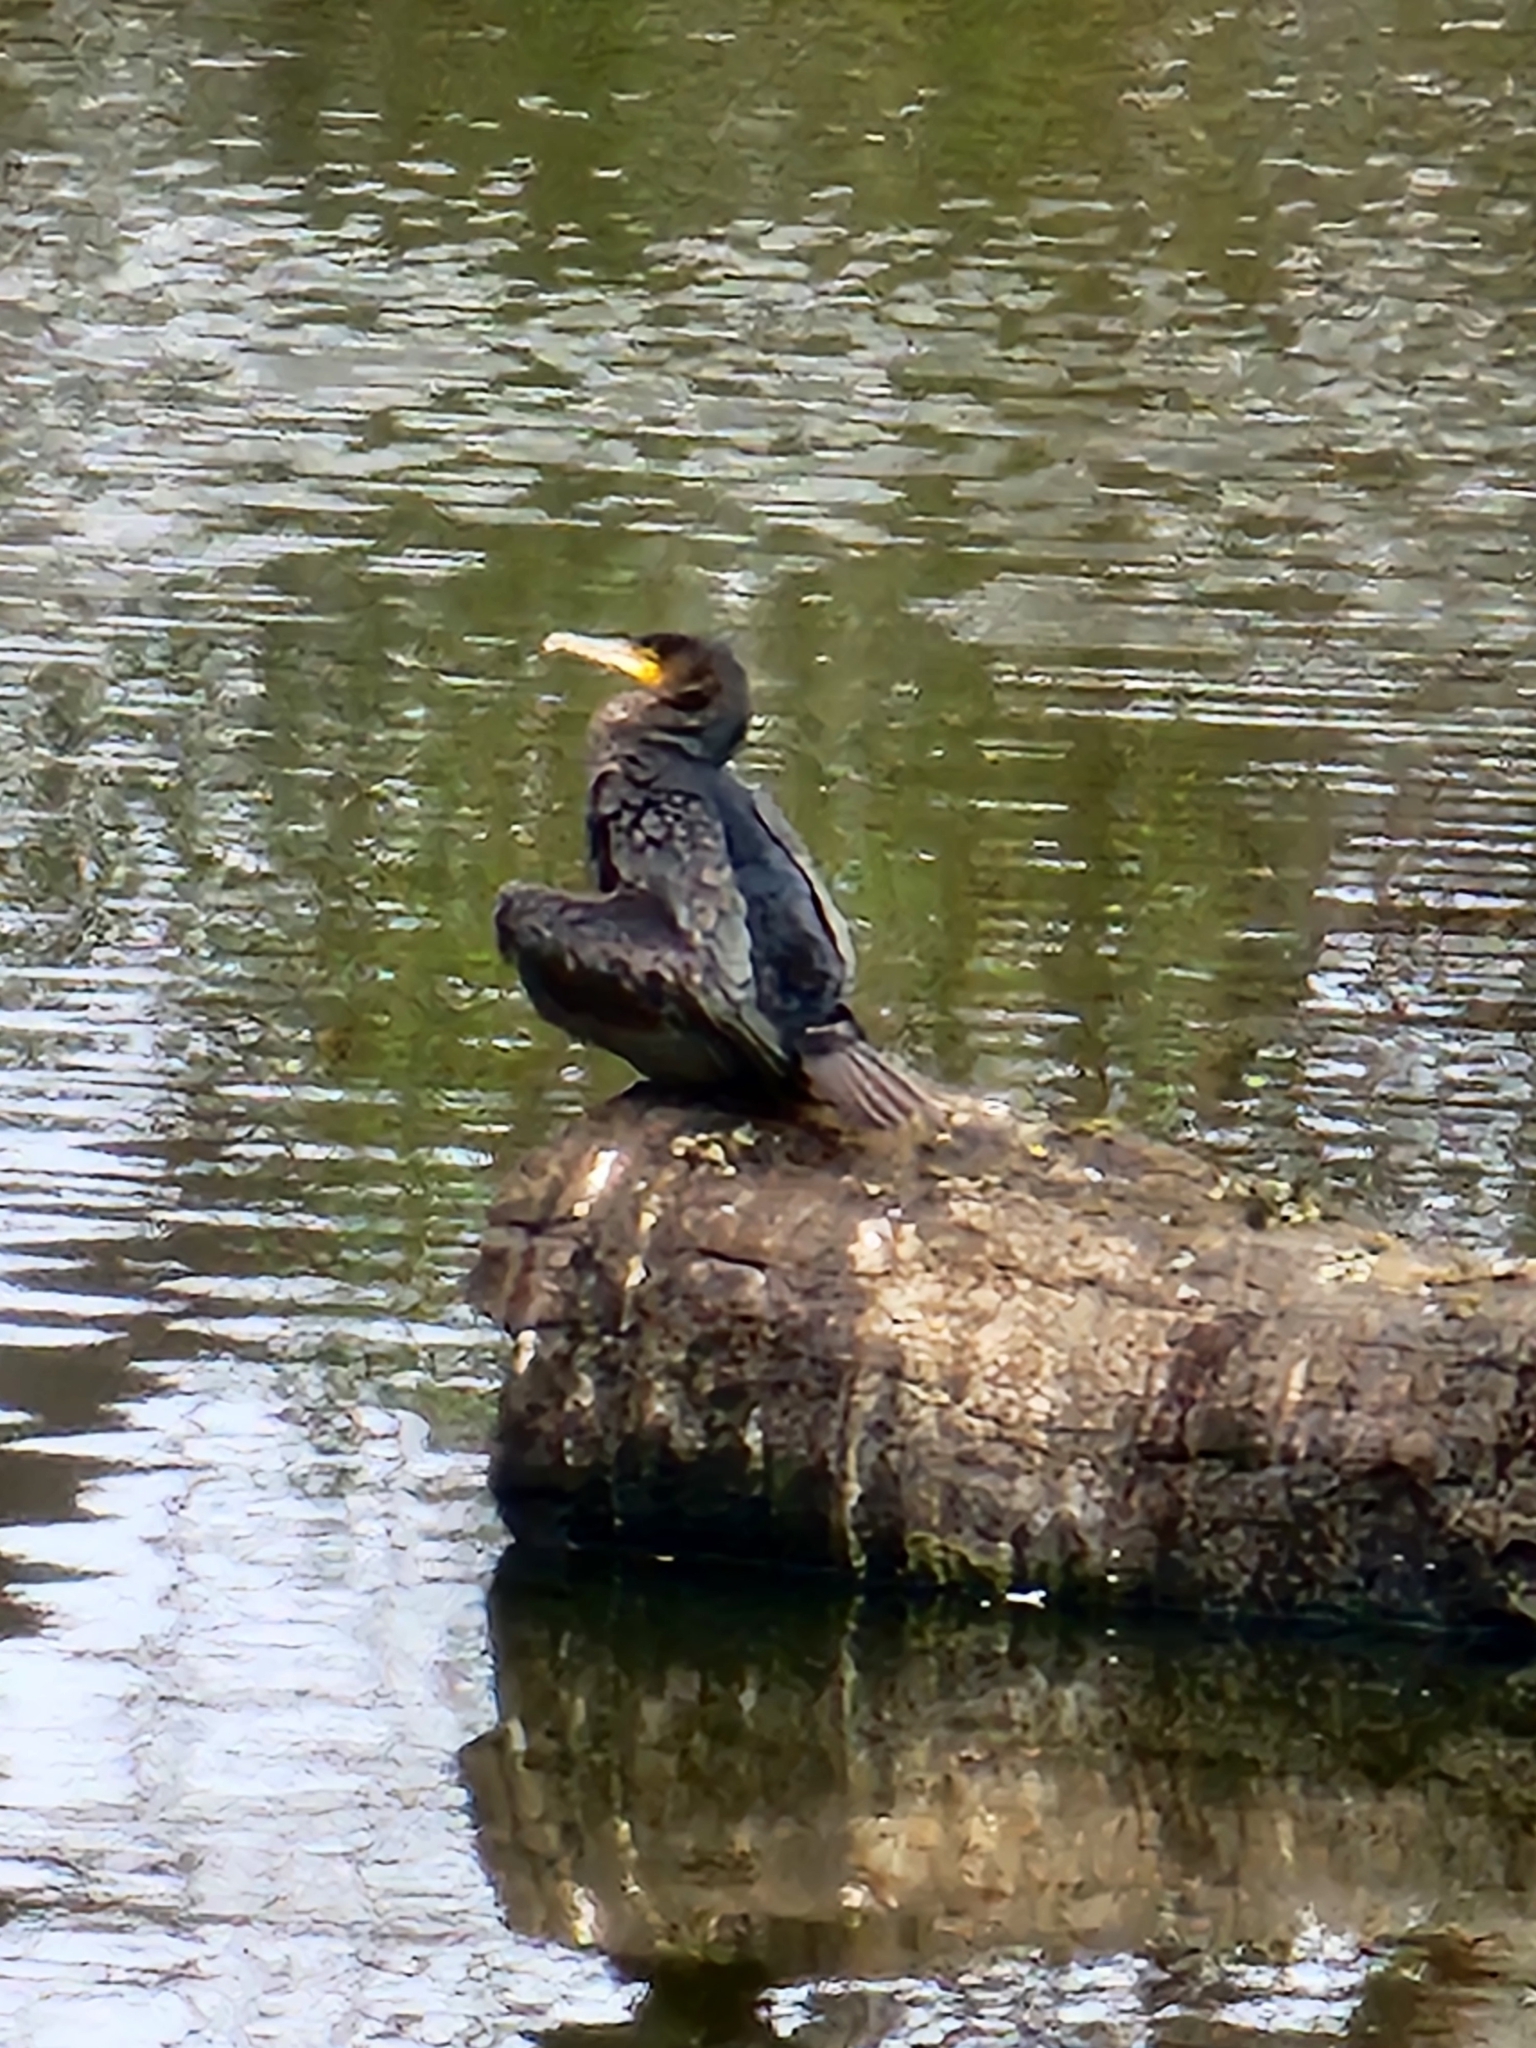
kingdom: Animalia
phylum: Chordata
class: Aves
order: Suliformes
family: Phalacrocoracidae
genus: Phalacrocorax
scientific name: Phalacrocorax carbo
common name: Great cormorant
